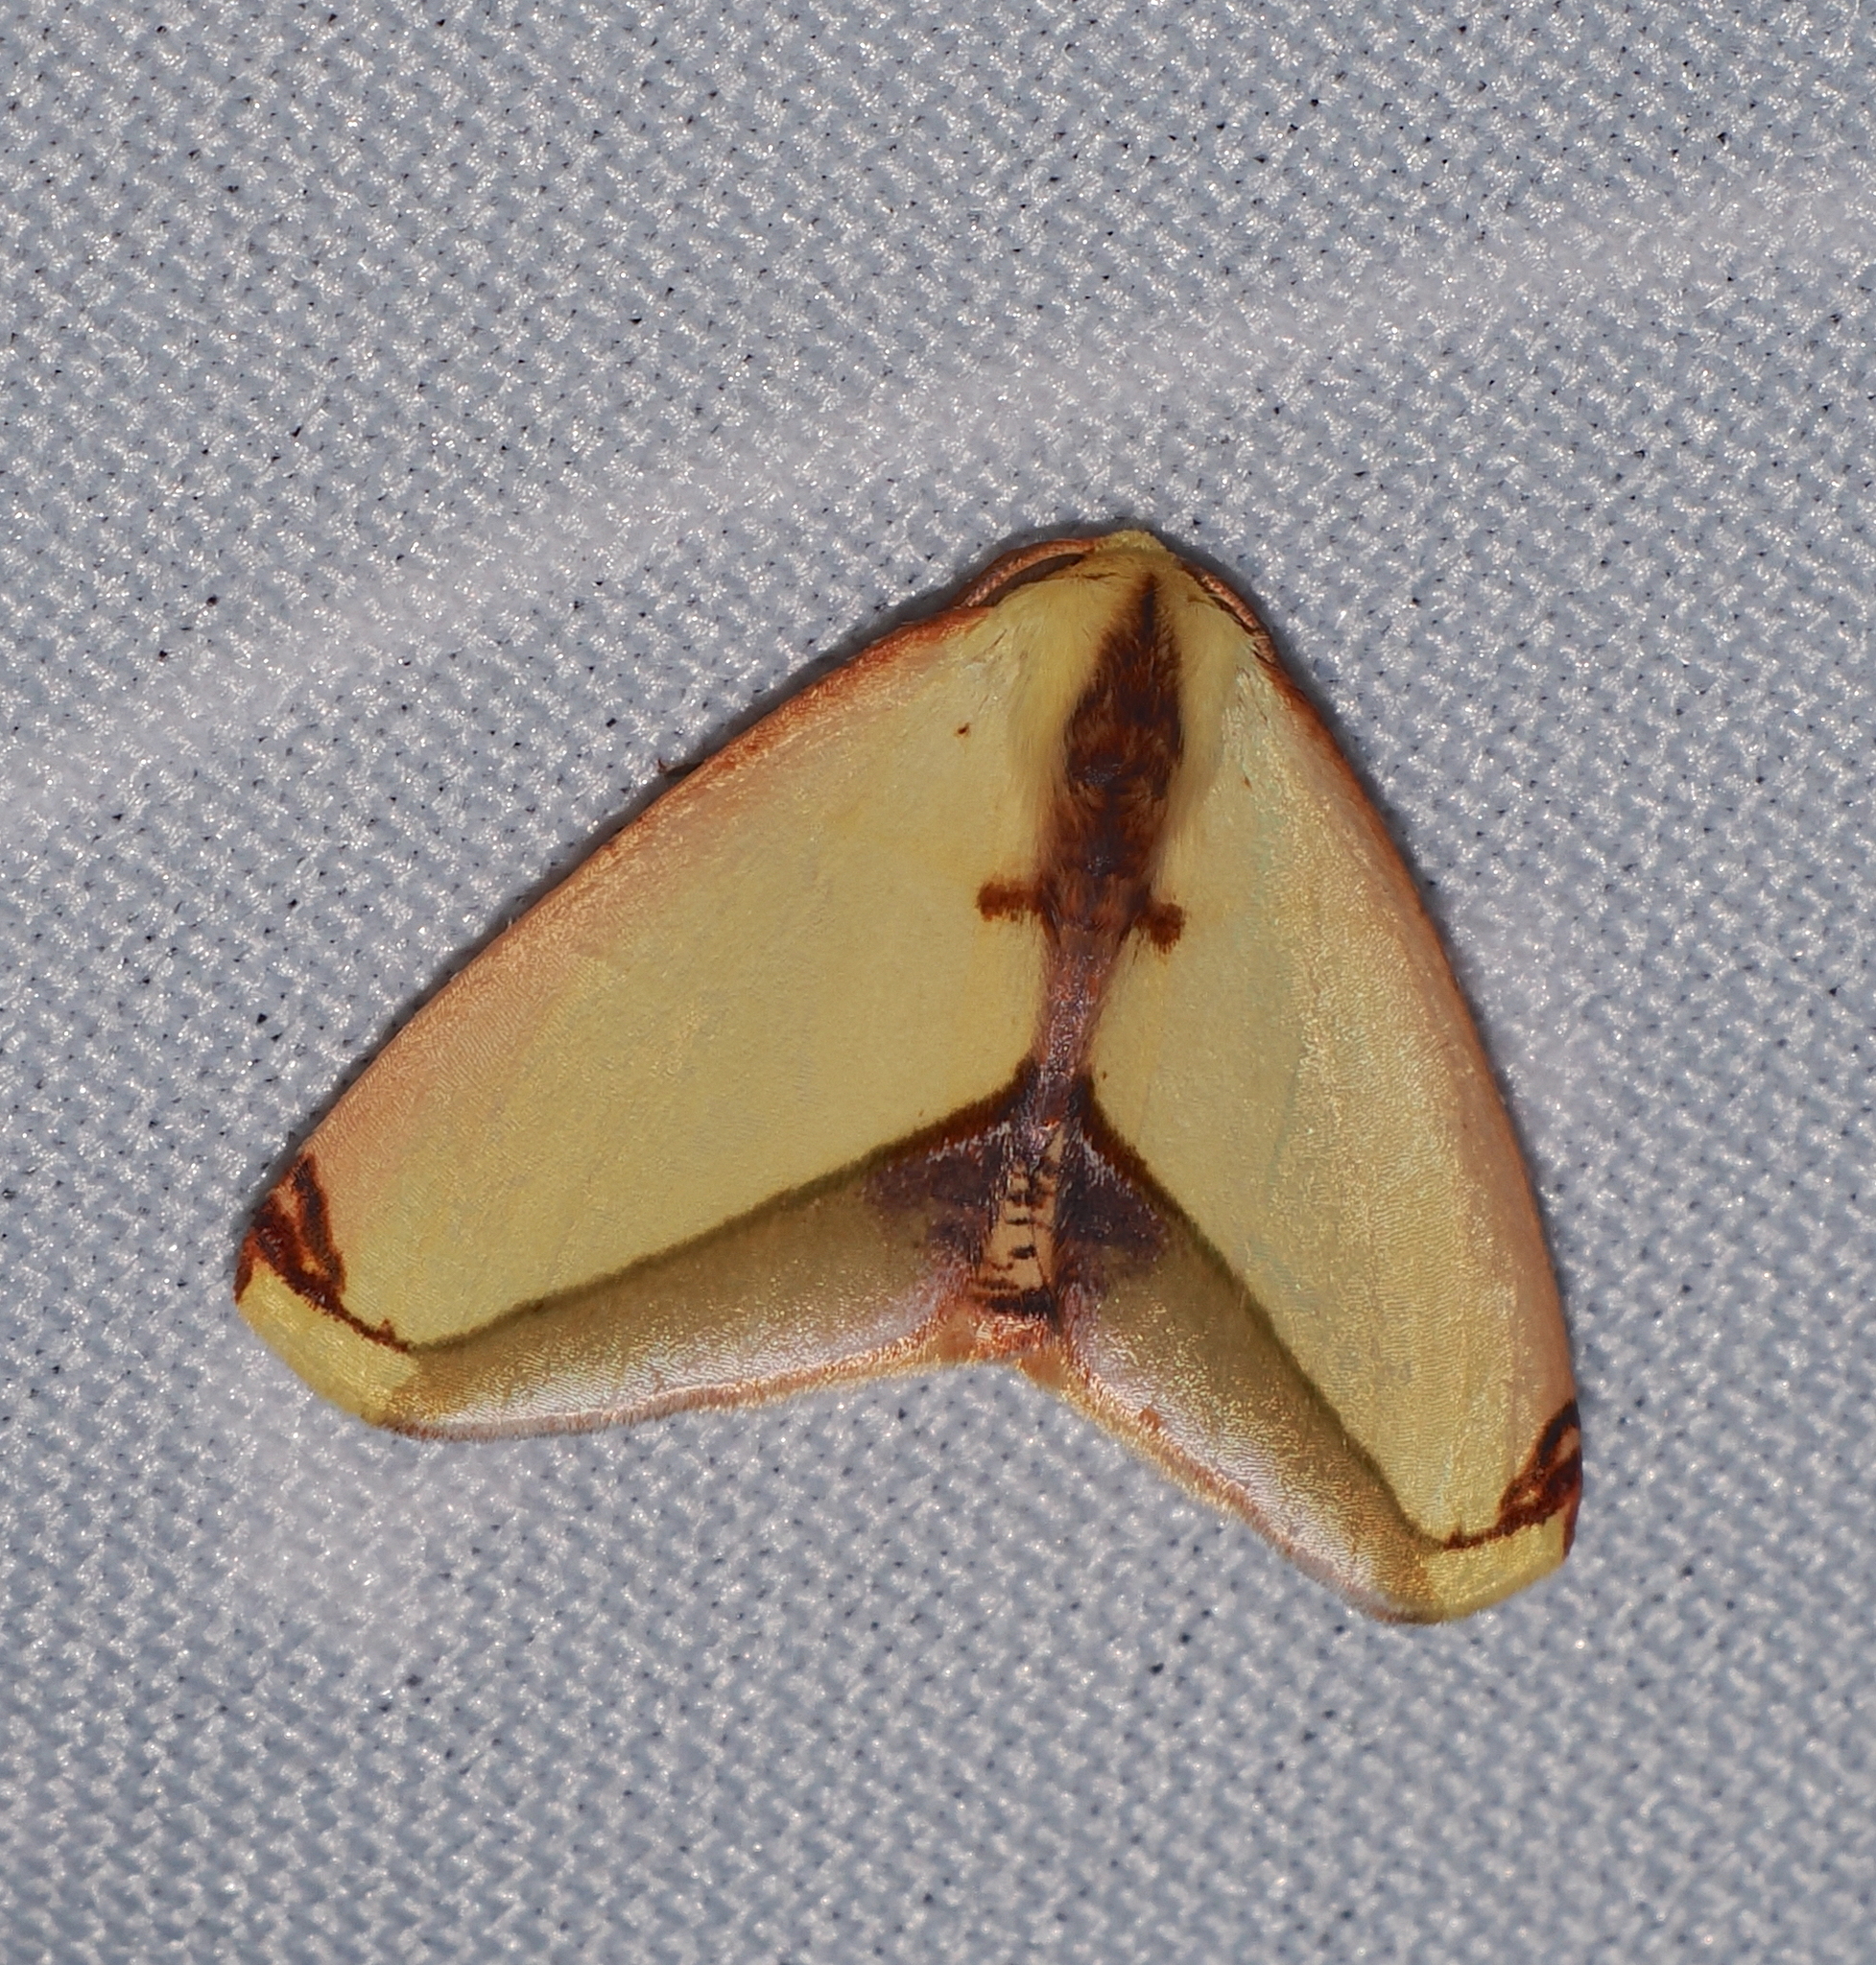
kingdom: Animalia
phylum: Arthropoda
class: Insecta
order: Lepidoptera
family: Geometridae
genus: Sicya
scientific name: Sicya dognini
